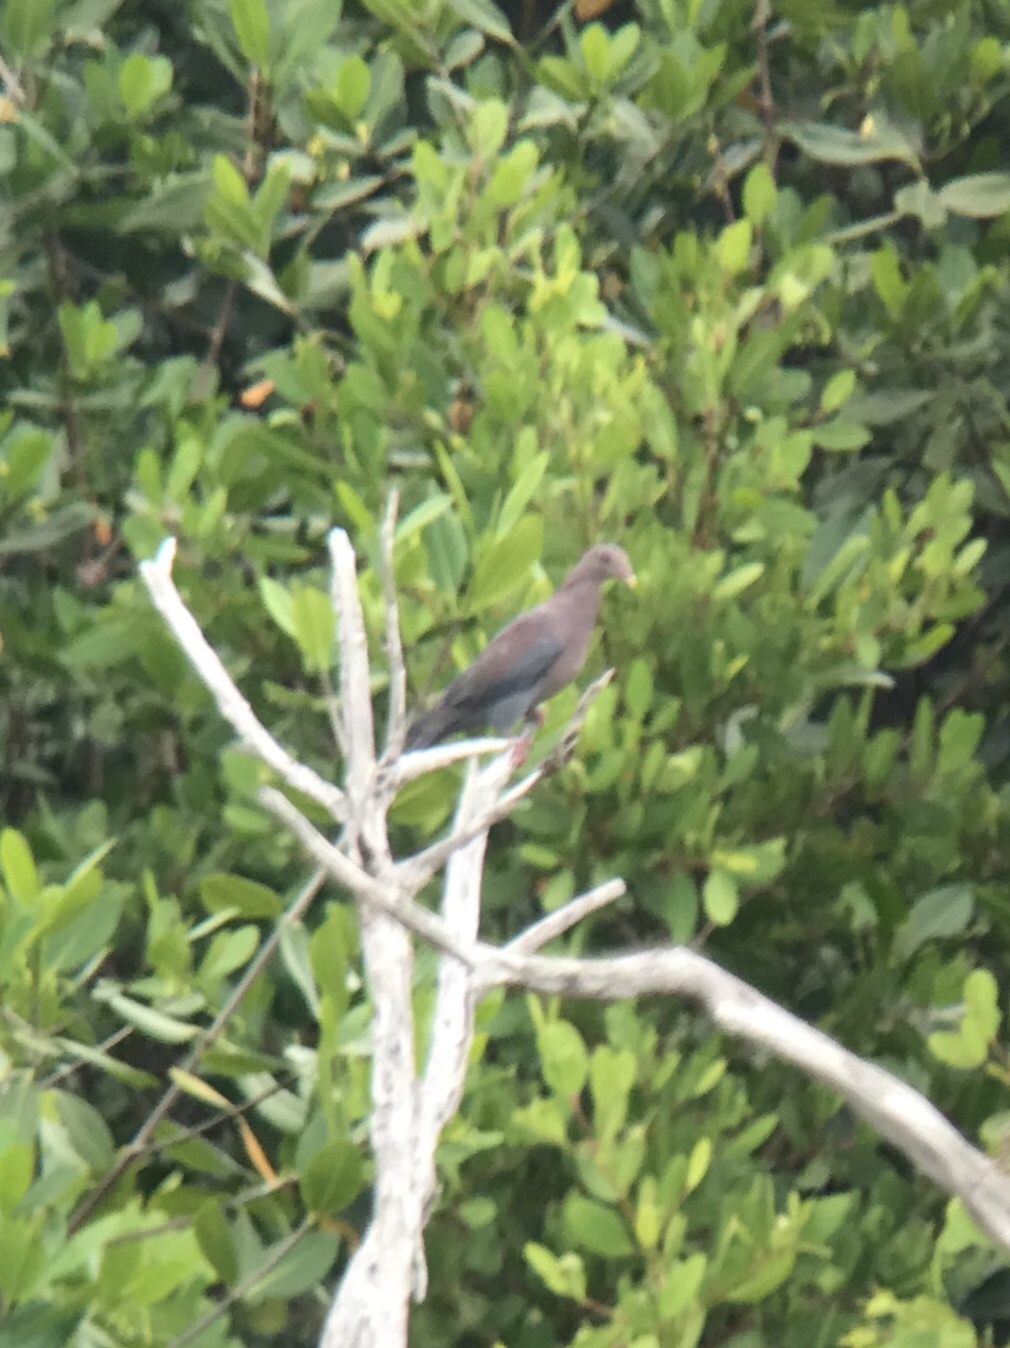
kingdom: Animalia
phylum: Chordata
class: Aves
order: Columbiformes
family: Columbidae
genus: Patagioenas
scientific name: Patagioenas flavirostris
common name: Red-billed pigeon
